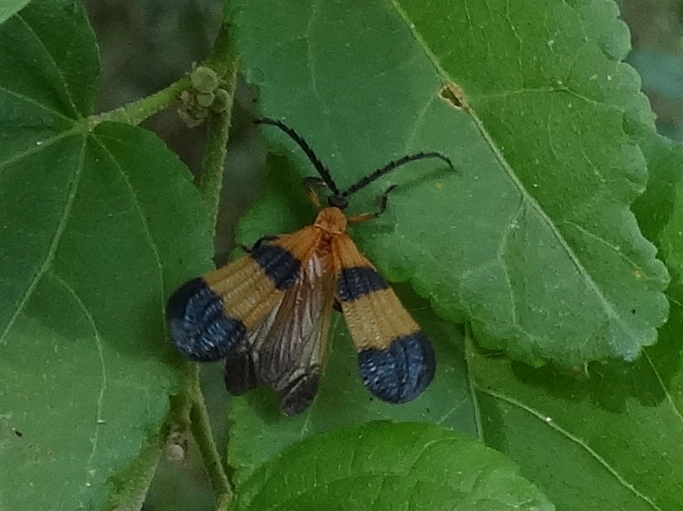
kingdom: Animalia
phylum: Arthropoda
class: Insecta
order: Coleoptera
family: Lycidae
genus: Calopteron
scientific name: Calopteron
